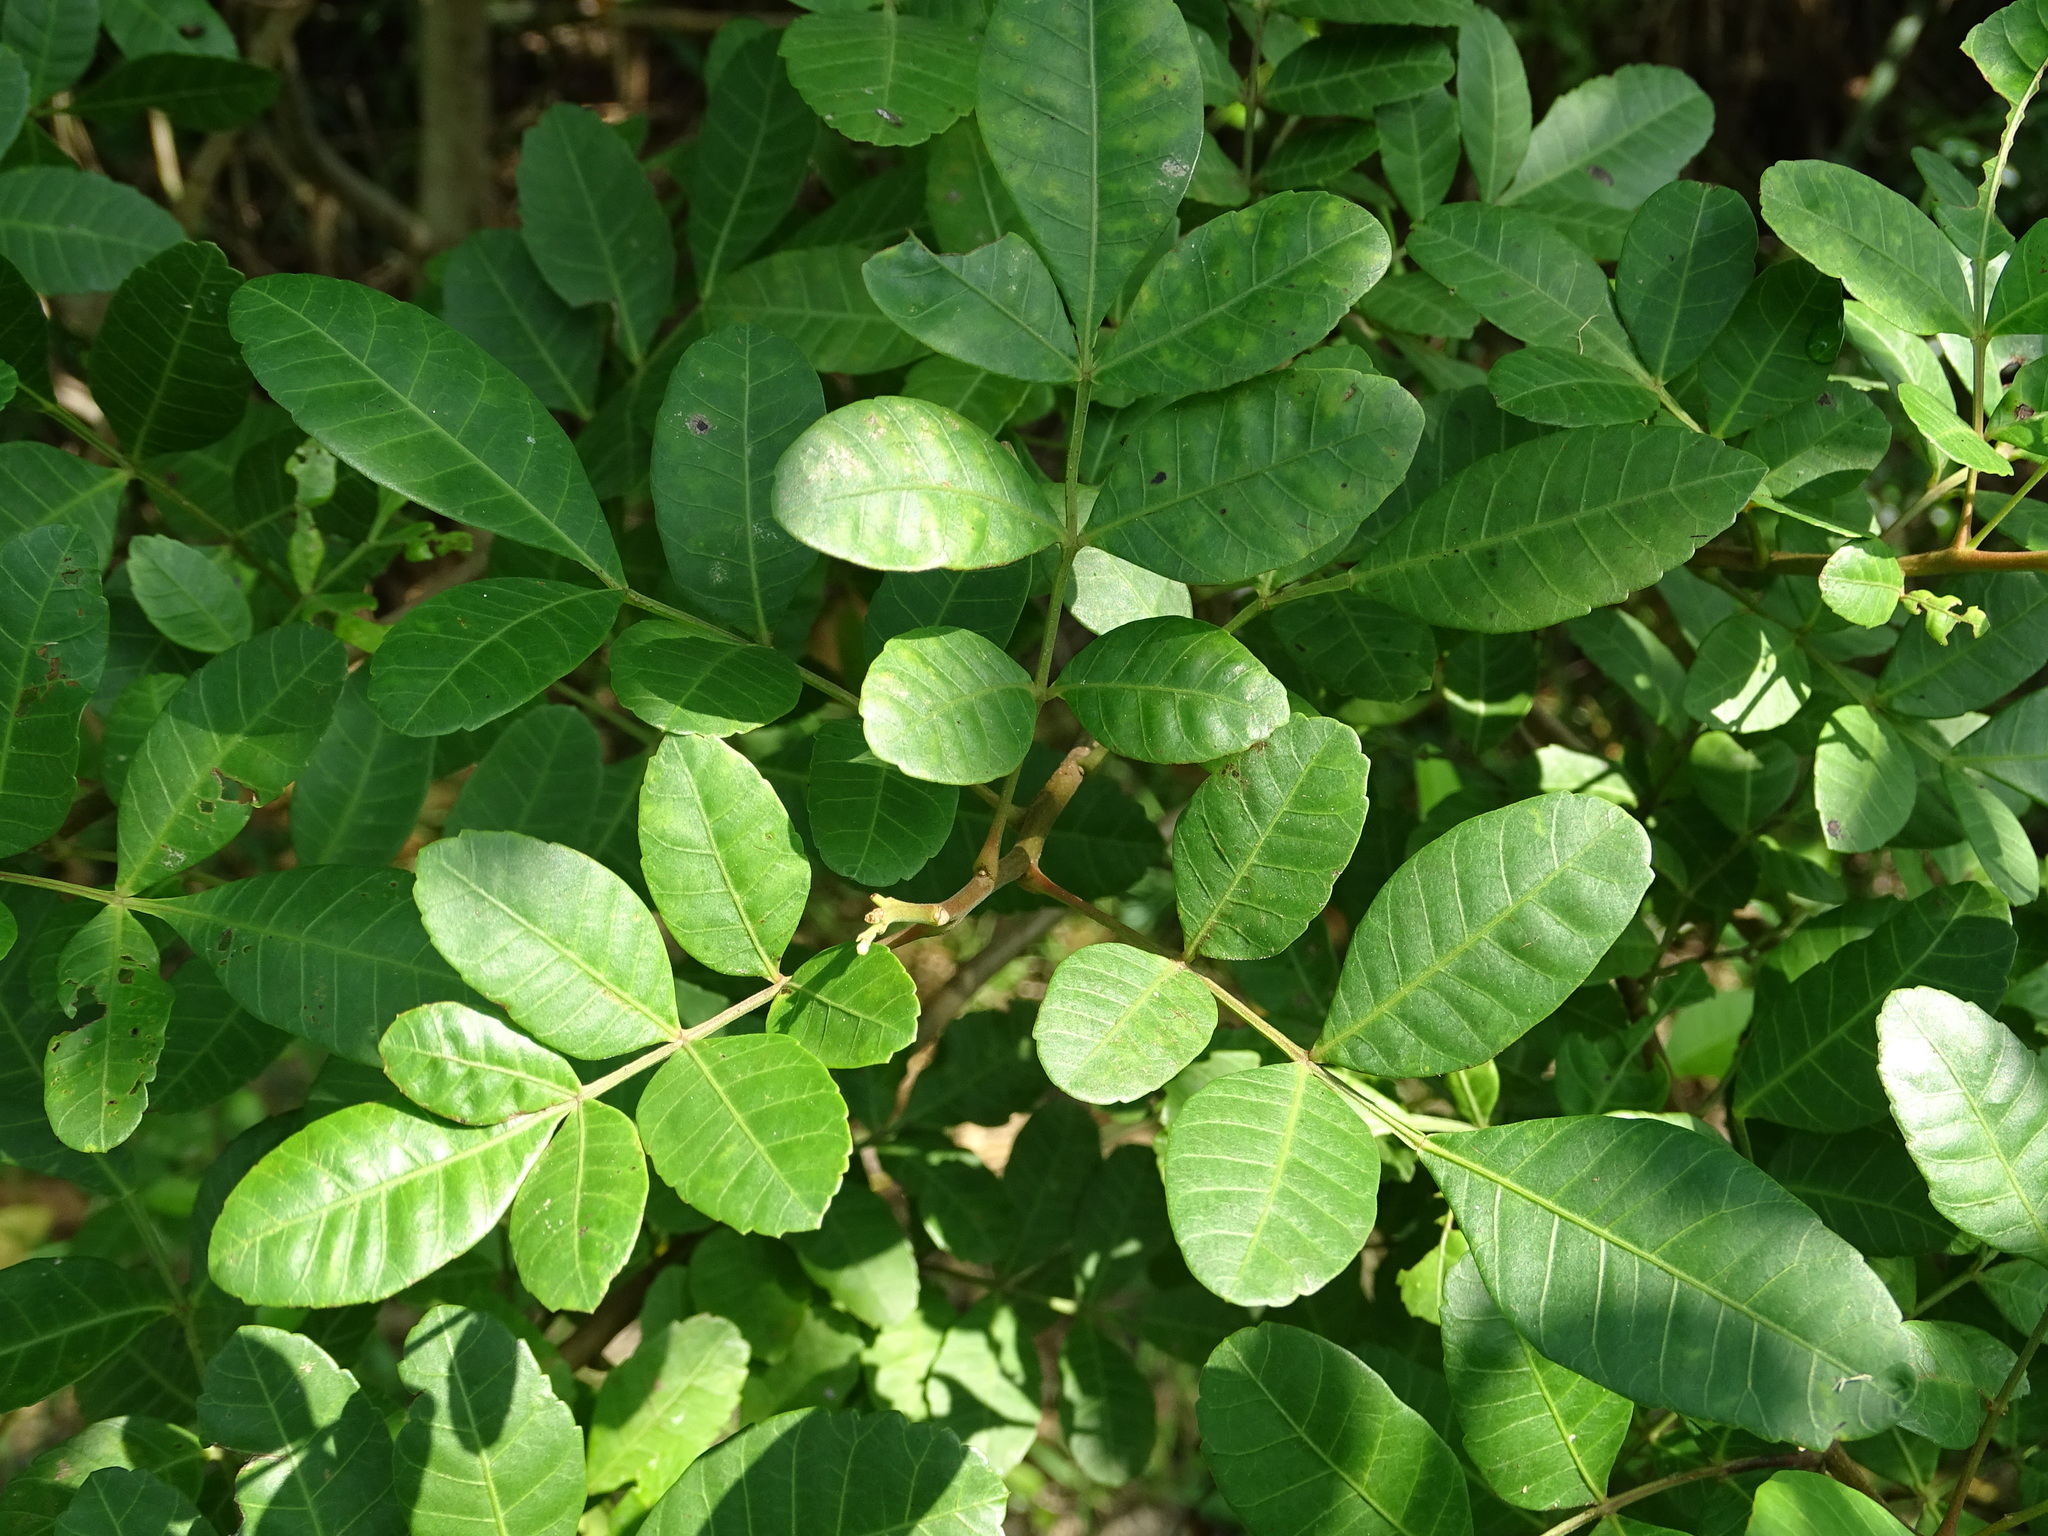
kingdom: Plantae
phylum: Tracheophyta
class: Magnoliopsida
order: Sapindales
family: Anacardiaceae
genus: Schinus
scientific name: Schinus terebinthifolia
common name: Brazilian peppertree
